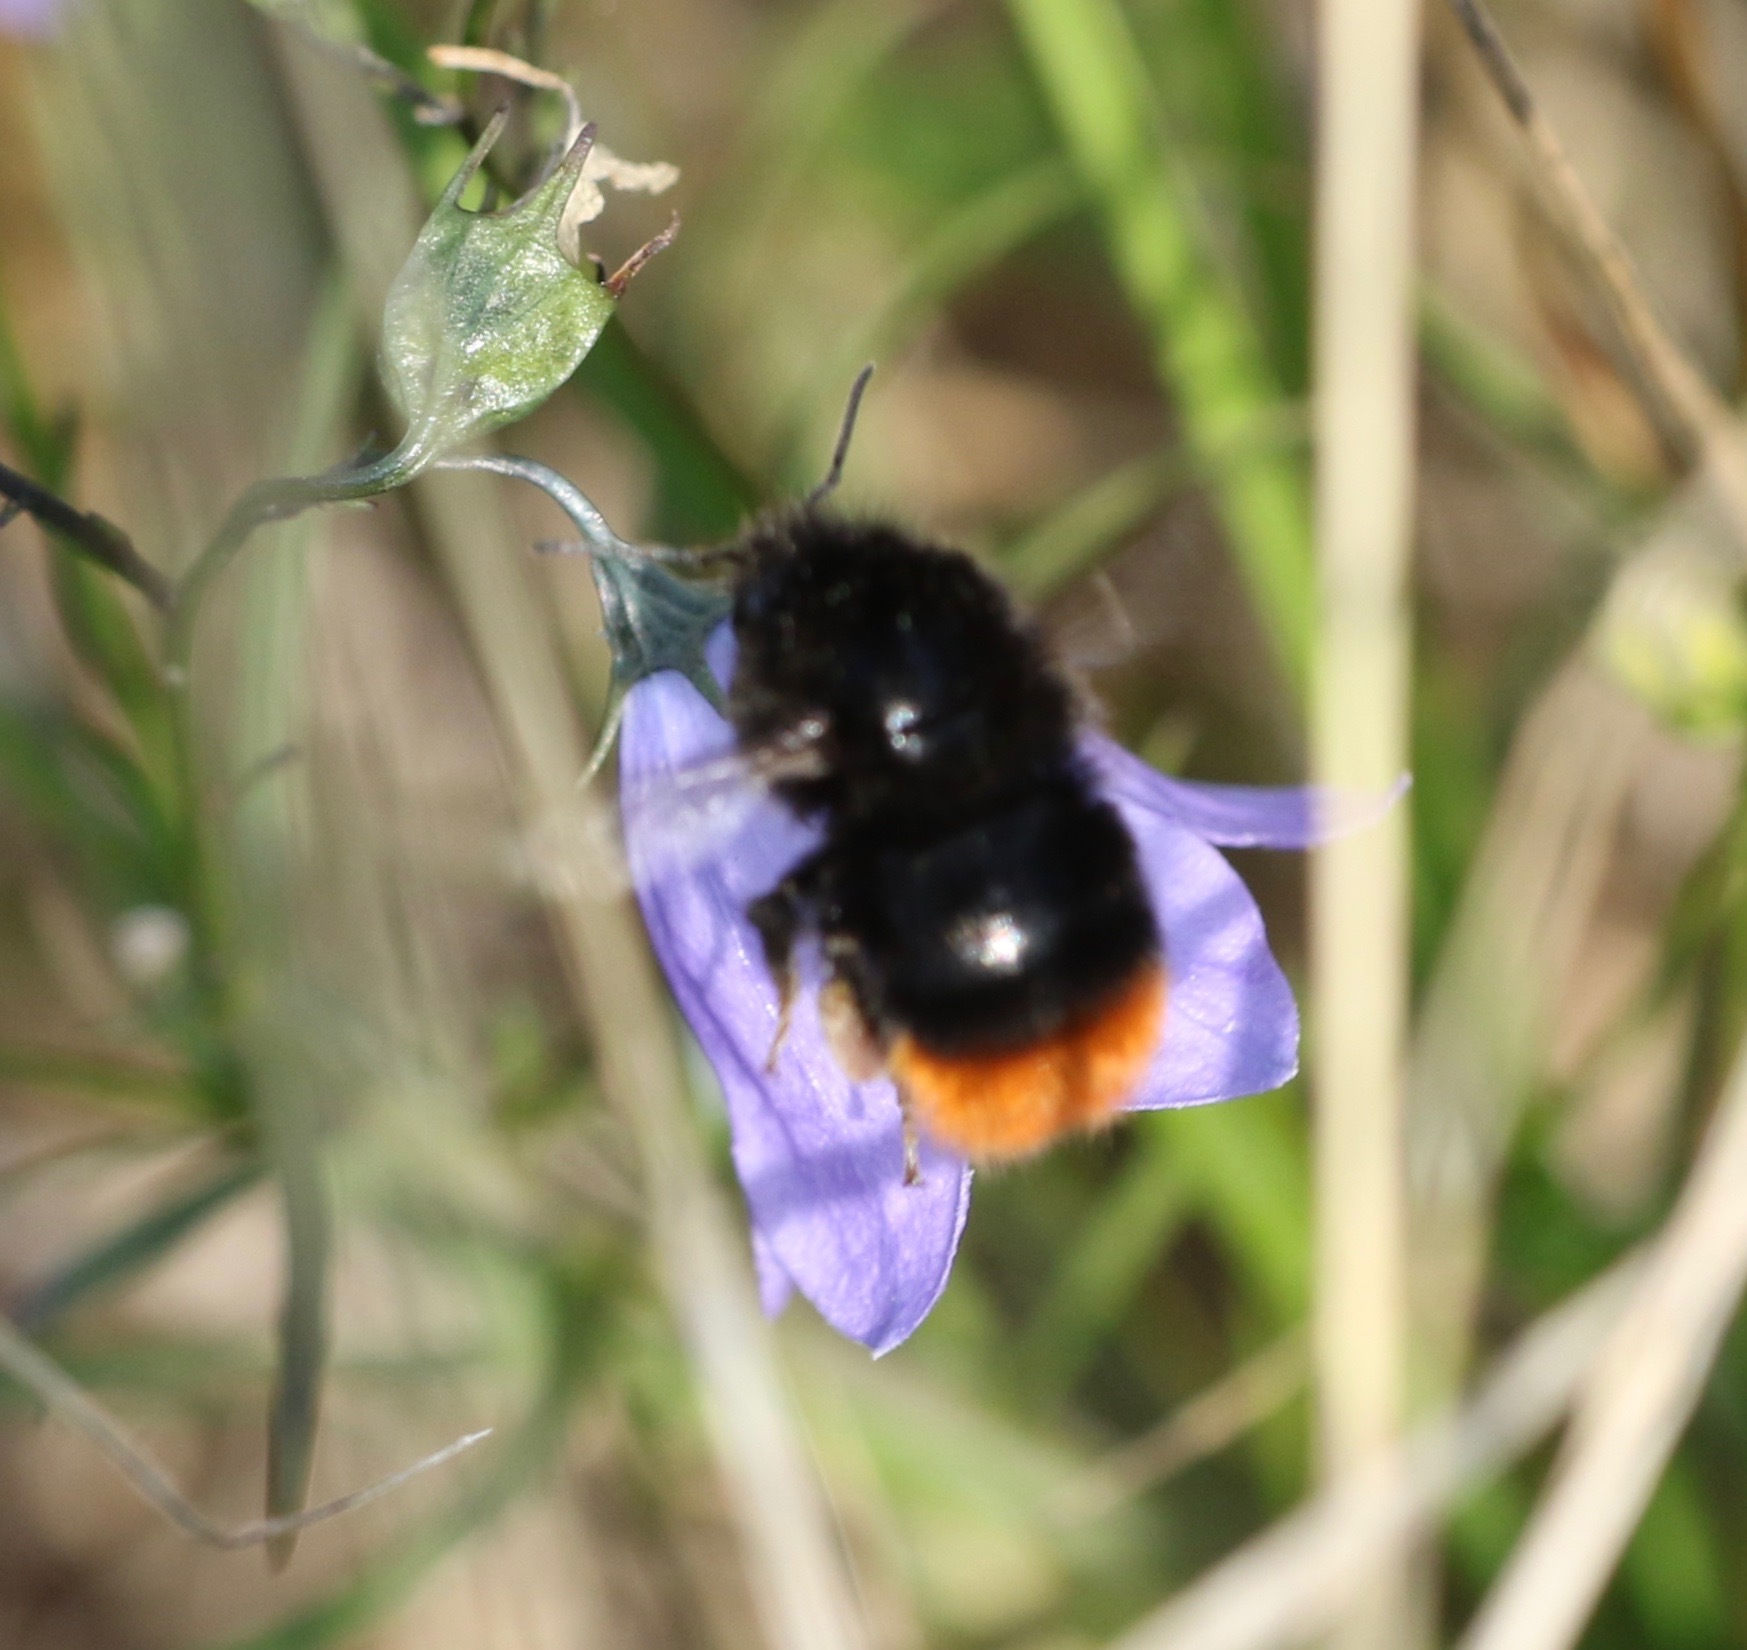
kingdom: Animalia
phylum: Arthropoda
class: Insecta
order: Hymenoptera
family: Apidae
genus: Bombus
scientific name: Bombus lapidarius
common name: Large red-tailed humble-bee
